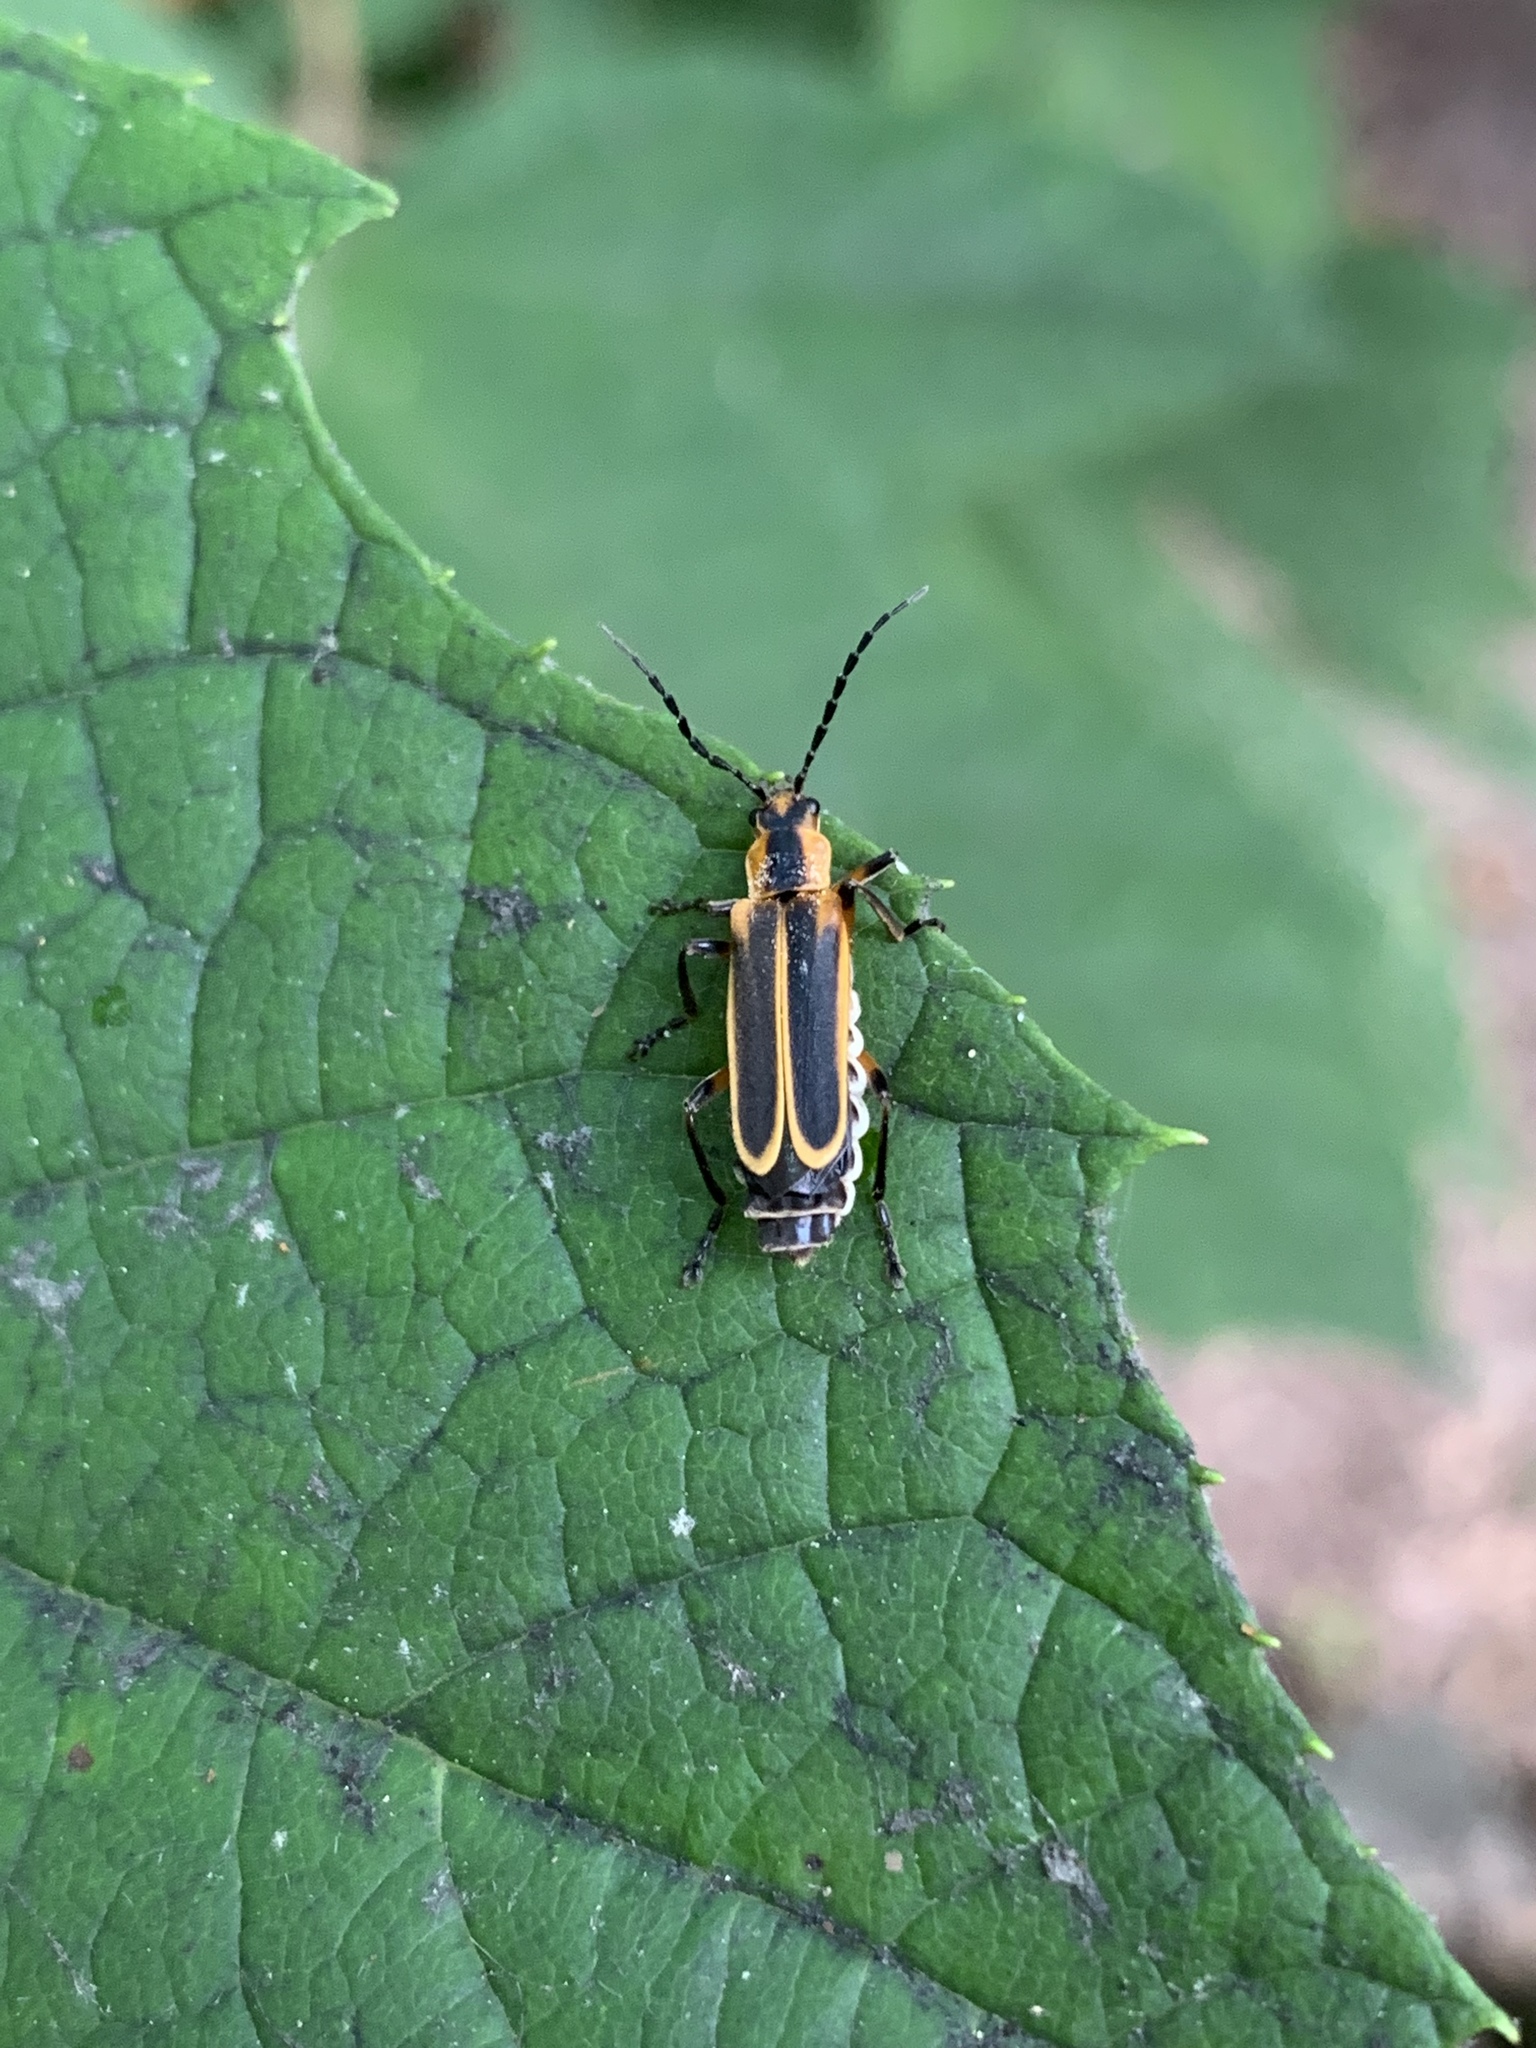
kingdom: Animalia
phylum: Arthropoda
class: Insecta
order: Coleoptera
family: Cantharidae
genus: Chauliognathus
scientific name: Chauliognathus marginatus
